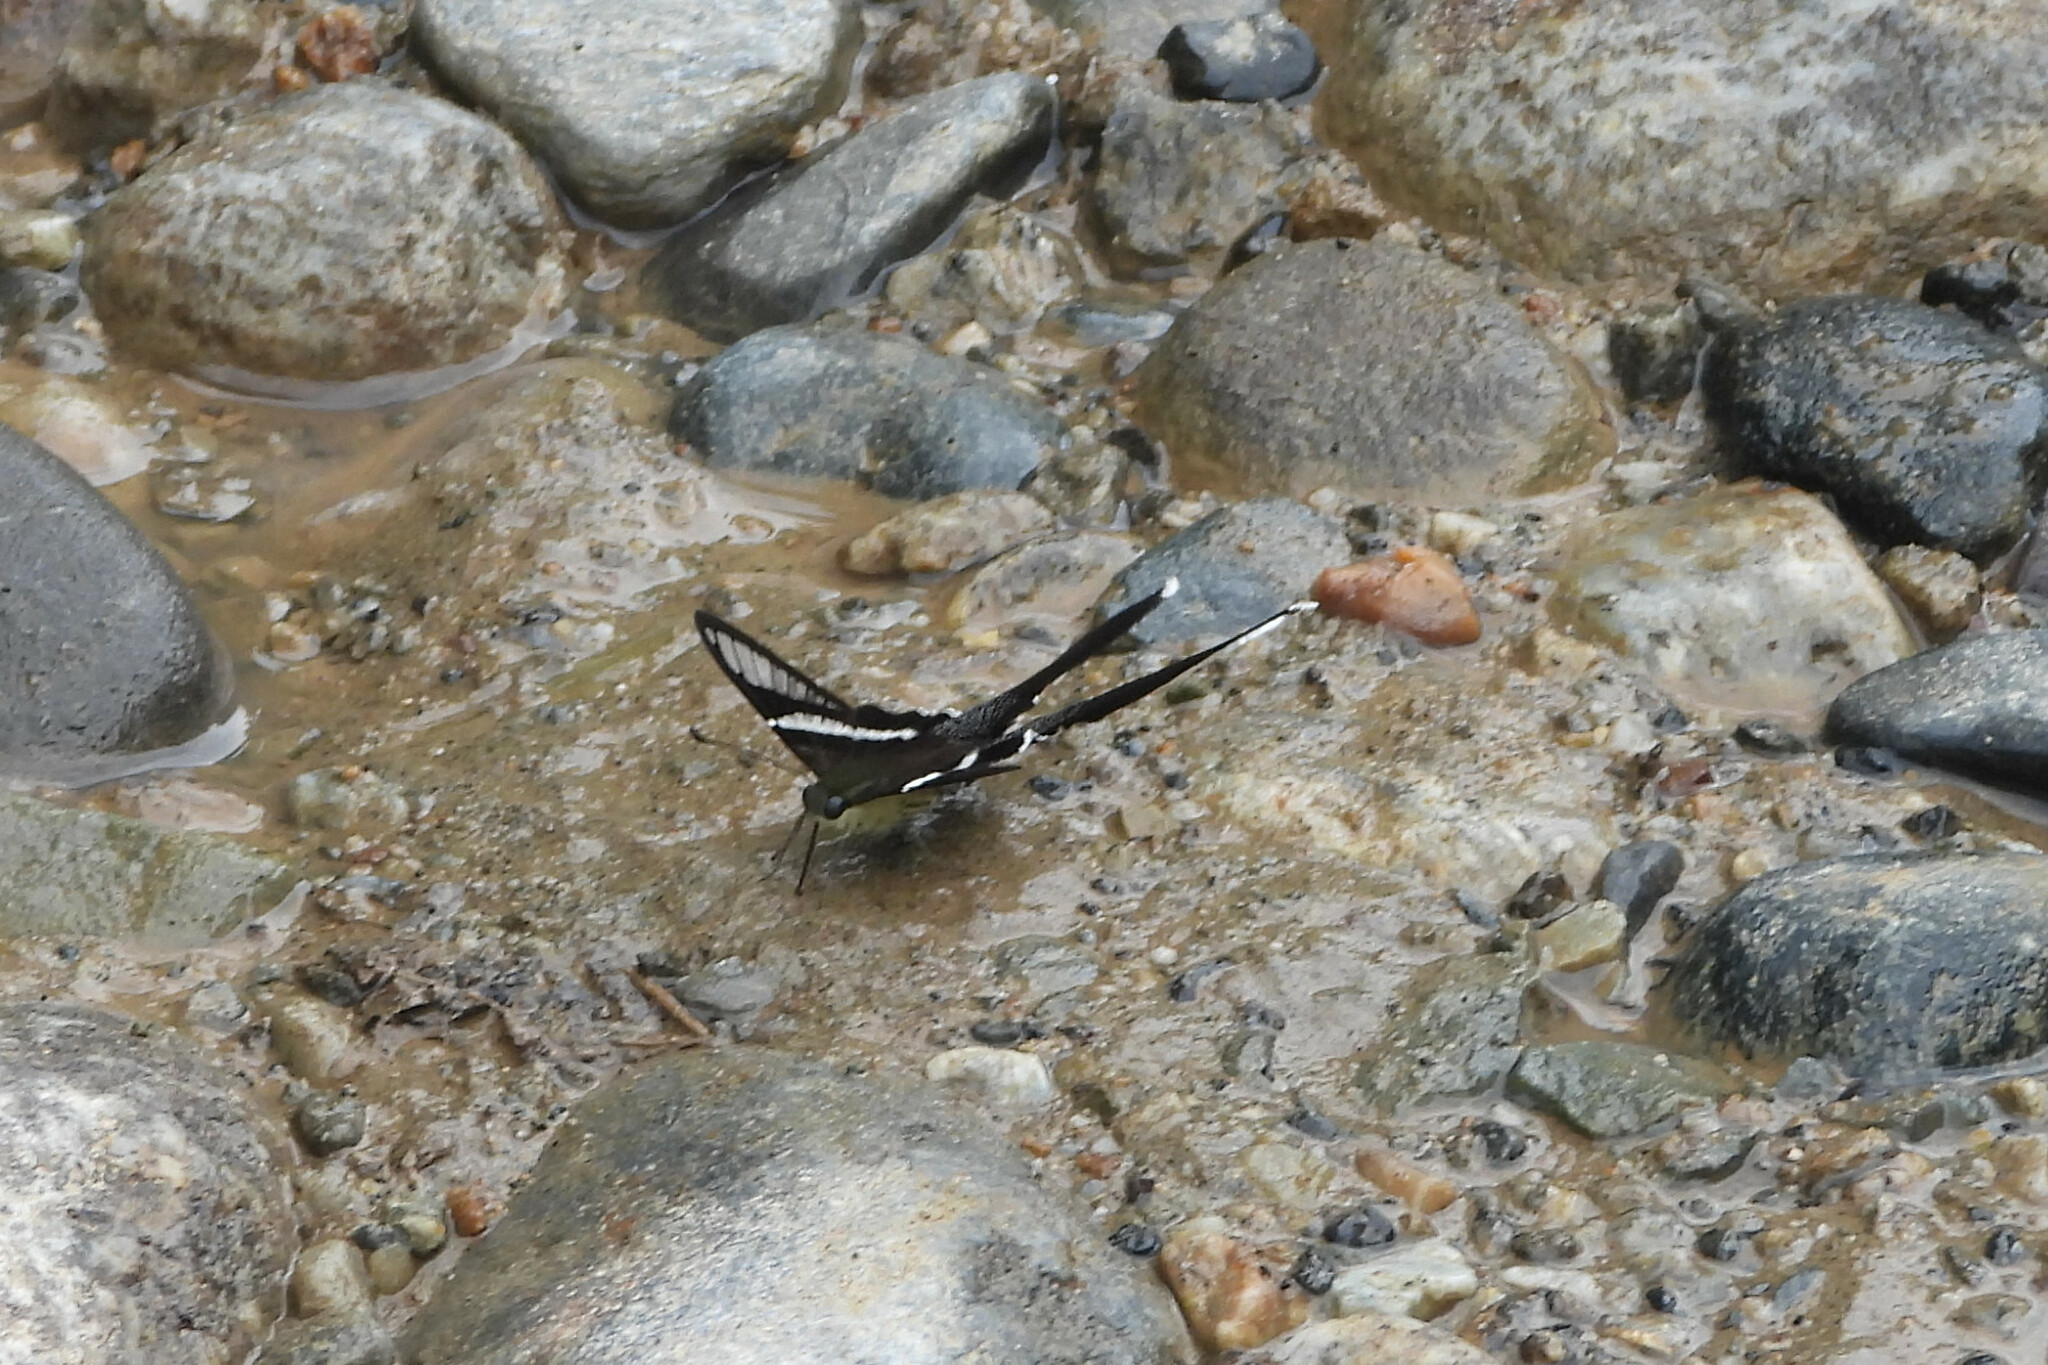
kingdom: Animalia
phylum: Arthropoda
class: Insecta
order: Lepidoptera
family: Papilionidae
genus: Lamproptera
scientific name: Lamproptera curius
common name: White dragontail
